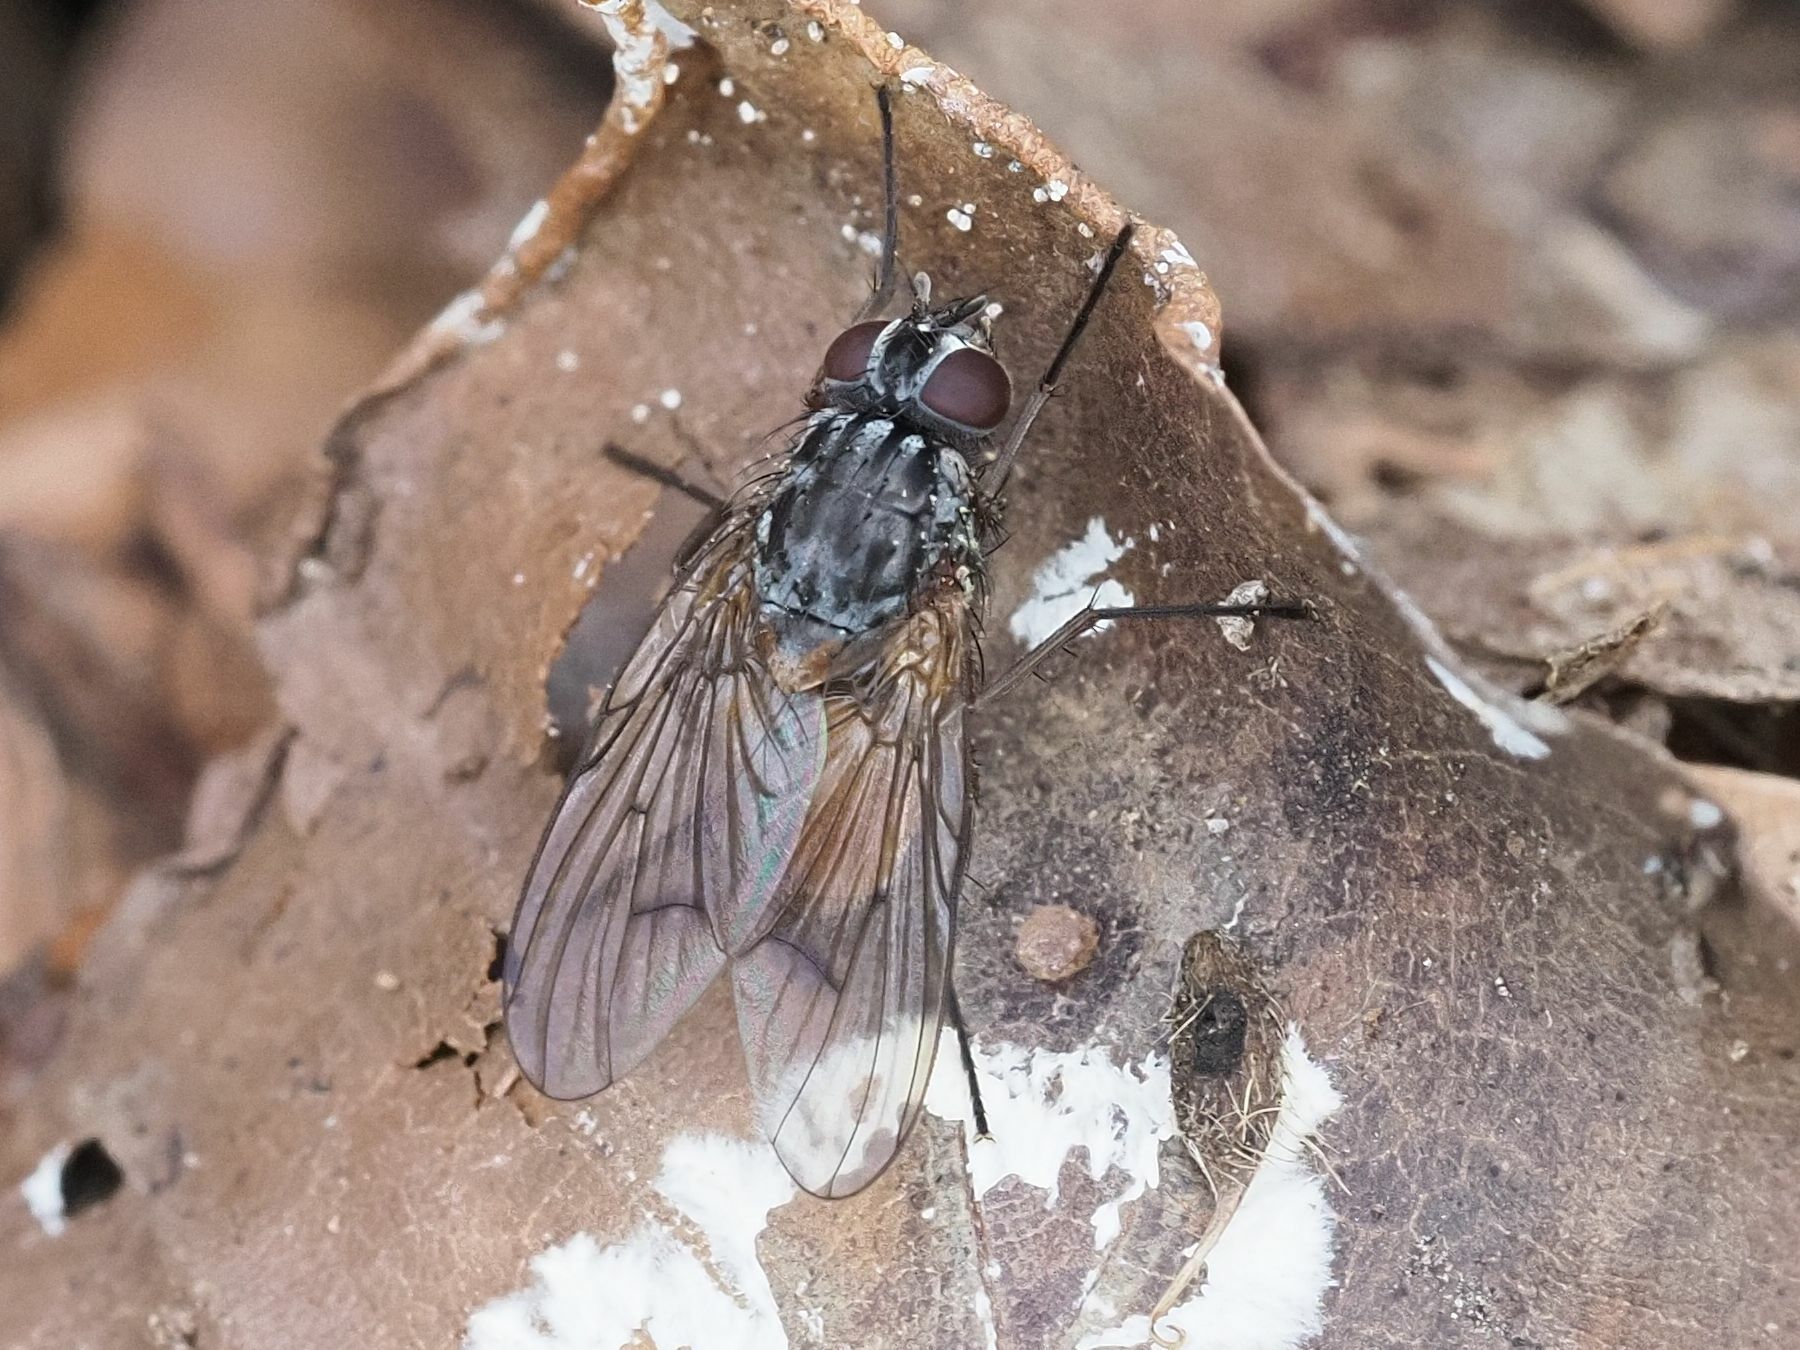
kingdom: Animalia
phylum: Arthropoda
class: Insecta
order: Diptera
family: Muscidae
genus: Phaonia
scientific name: Phaonia subventa
